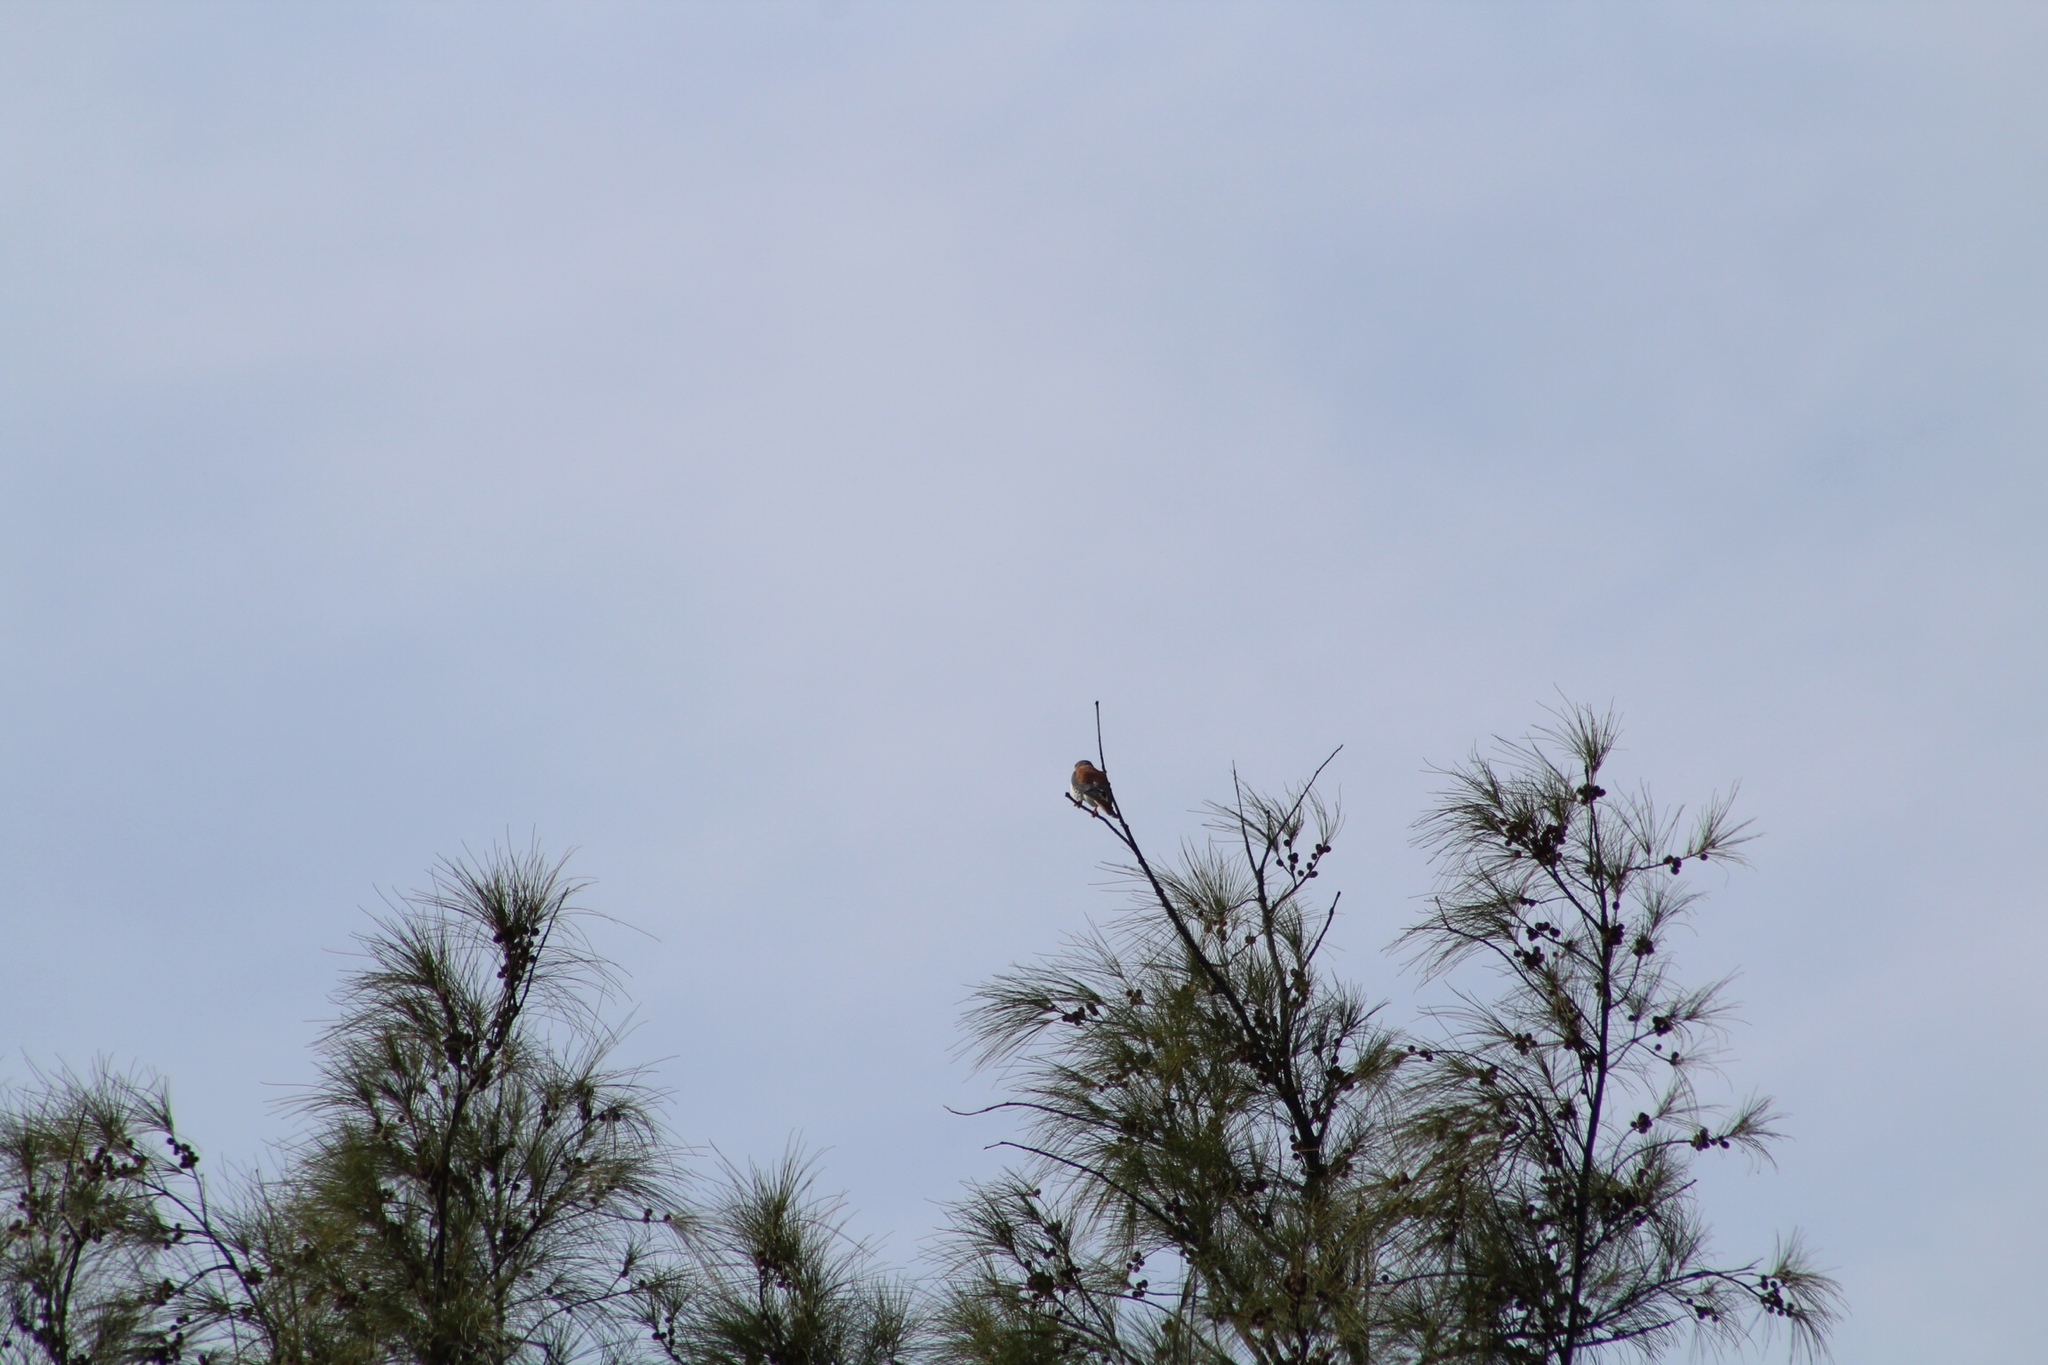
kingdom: Animalia
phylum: Chordata
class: Aves
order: Falconiformes
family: Falconidae
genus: Falco
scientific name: Falco sparverius
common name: American kestrel
